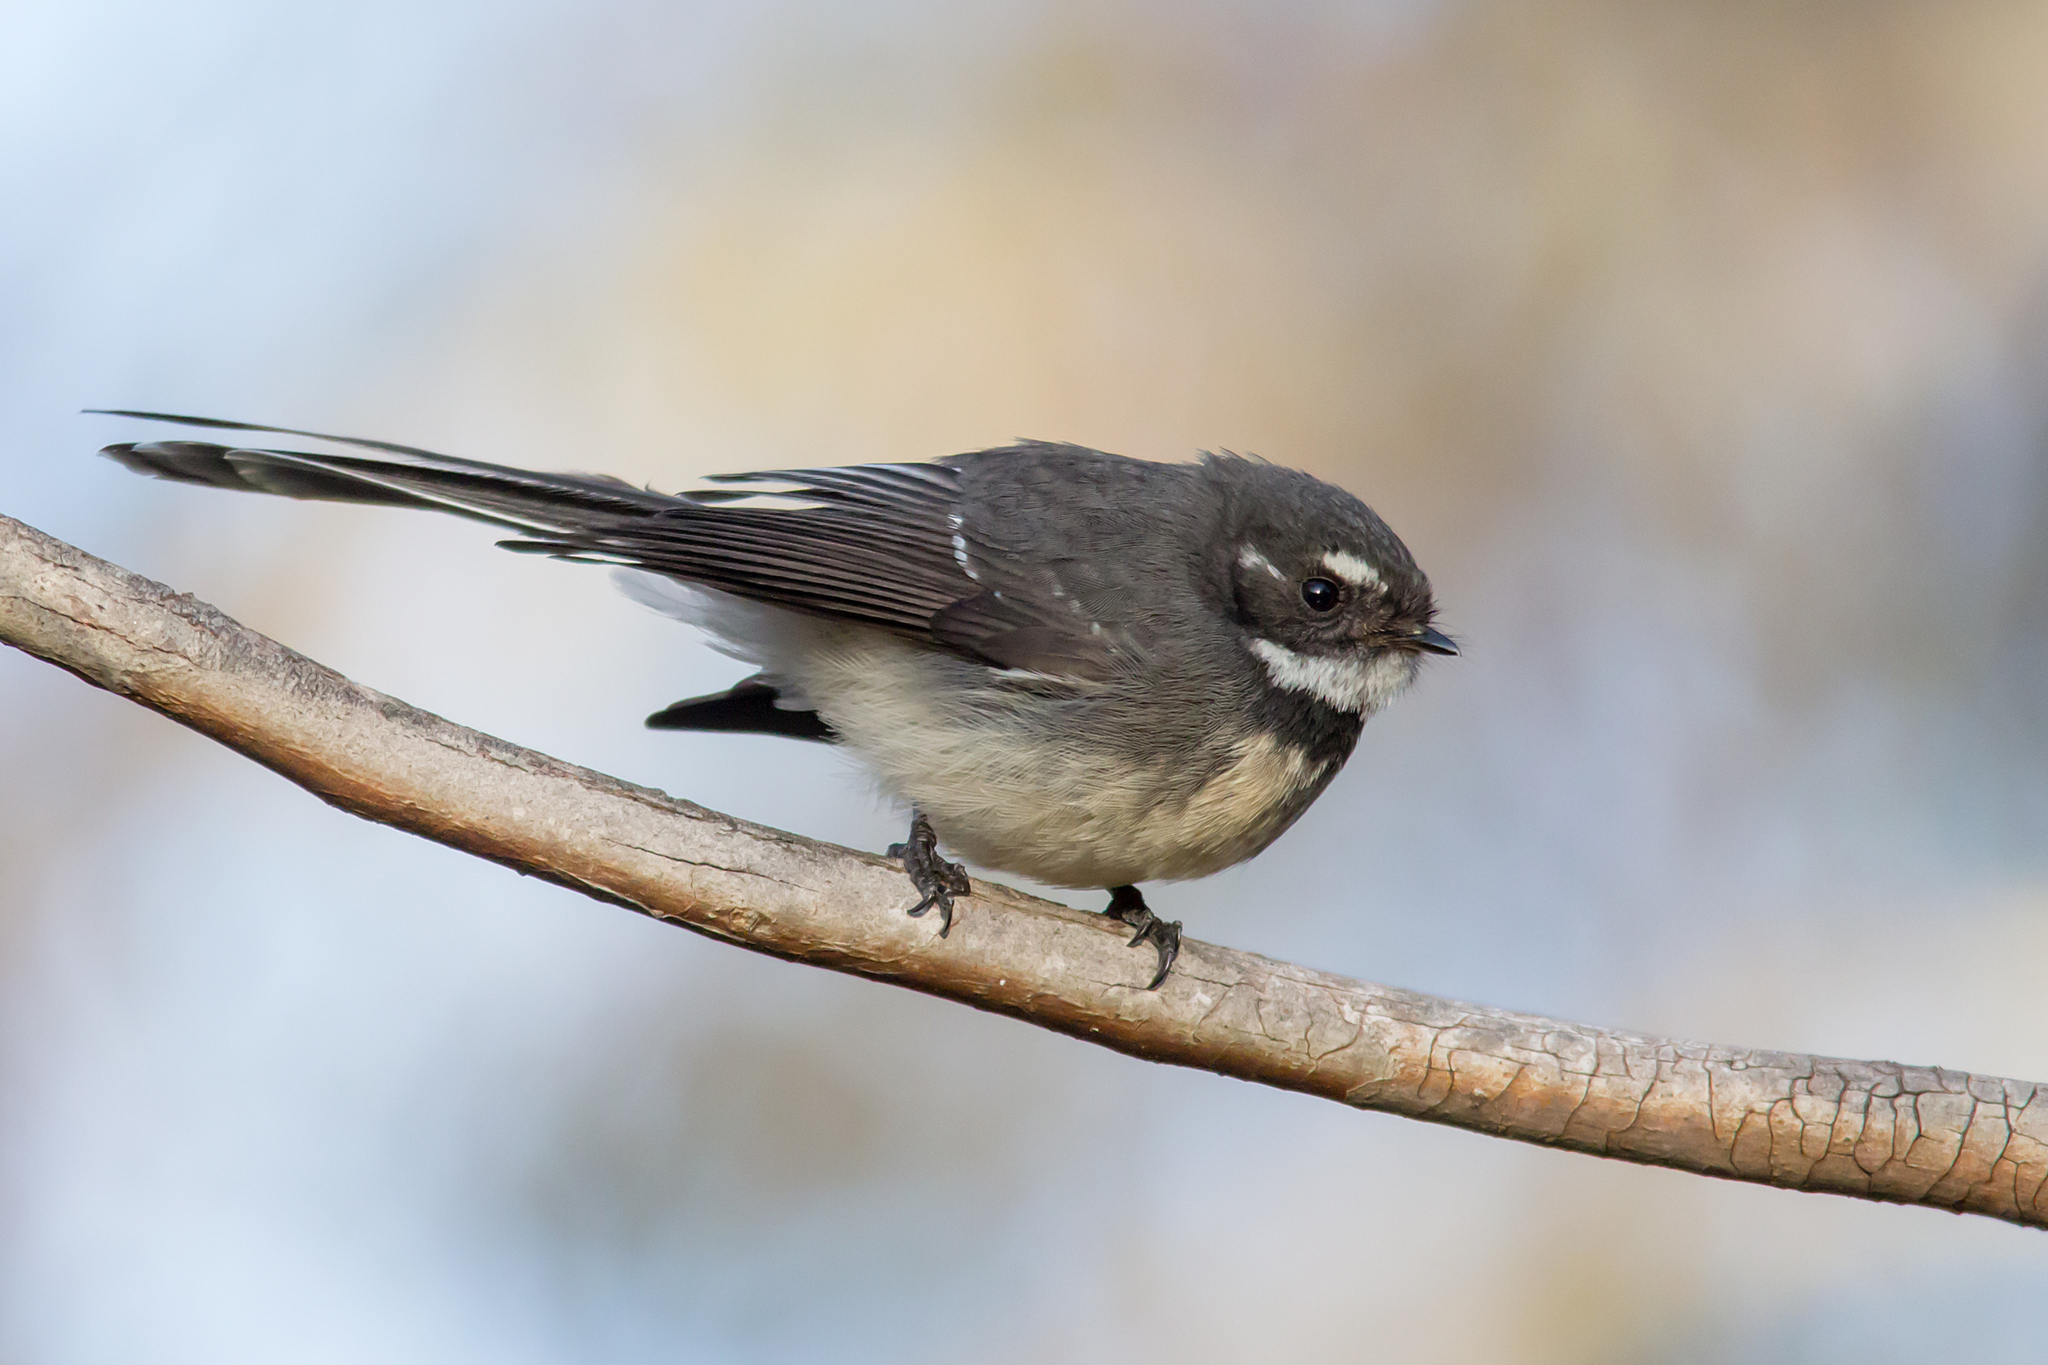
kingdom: Animalia
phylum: Chordata
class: Aves
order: Passeriformes
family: Rhipiduridae
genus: Rhipidura
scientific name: Rhipidura albiscapa
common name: Grey fantail
